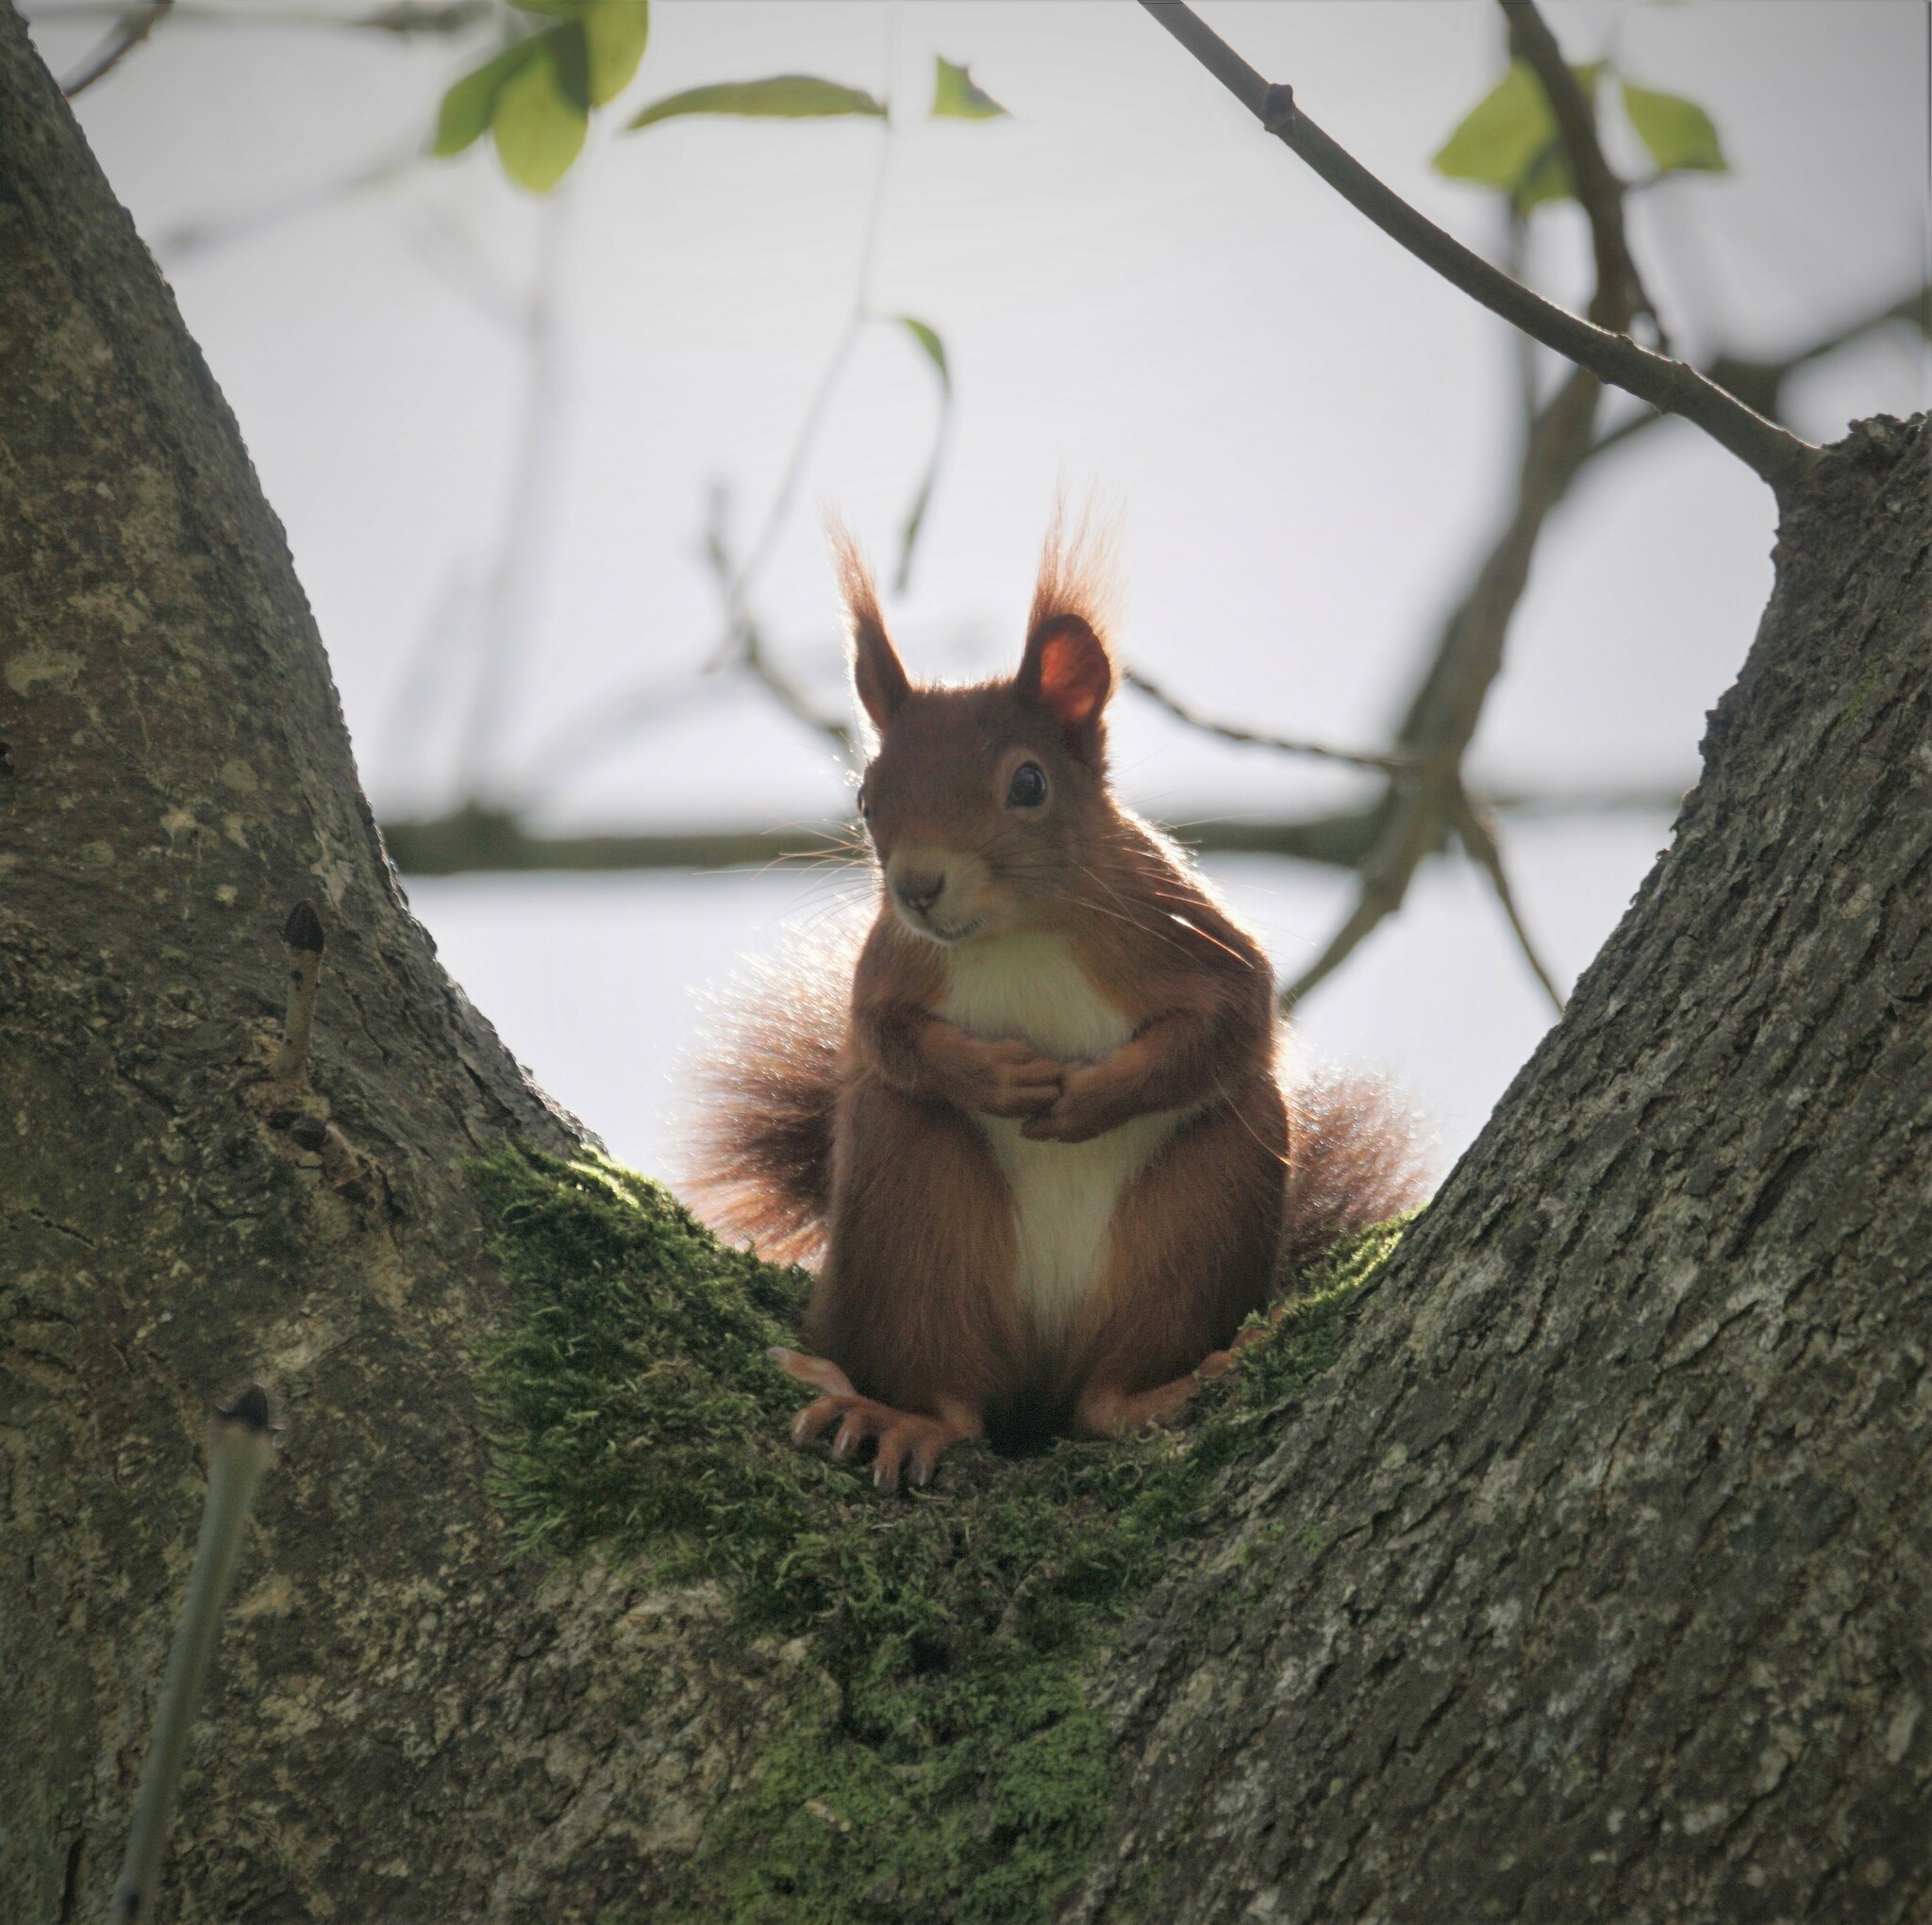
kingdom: Animalia
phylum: Chordata
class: Mammalia
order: Rodentia
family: Sciuridae
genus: Sciurus
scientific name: Sciurus vulgaris
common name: Eurasian red squirrel
